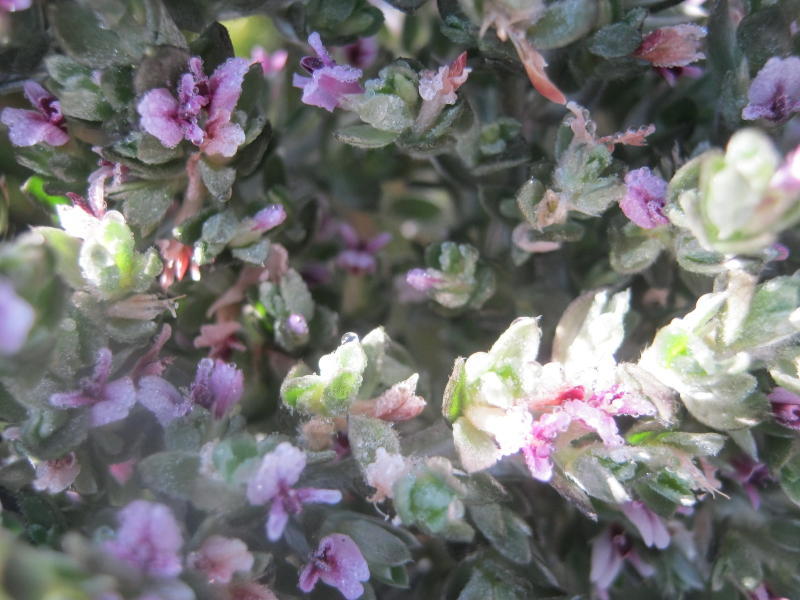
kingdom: Plantae
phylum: Tracheophyta
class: Magnoliopsida
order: Fabales
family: Fabaceae
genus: Amphithalea
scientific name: Amphithalea fourcadei
